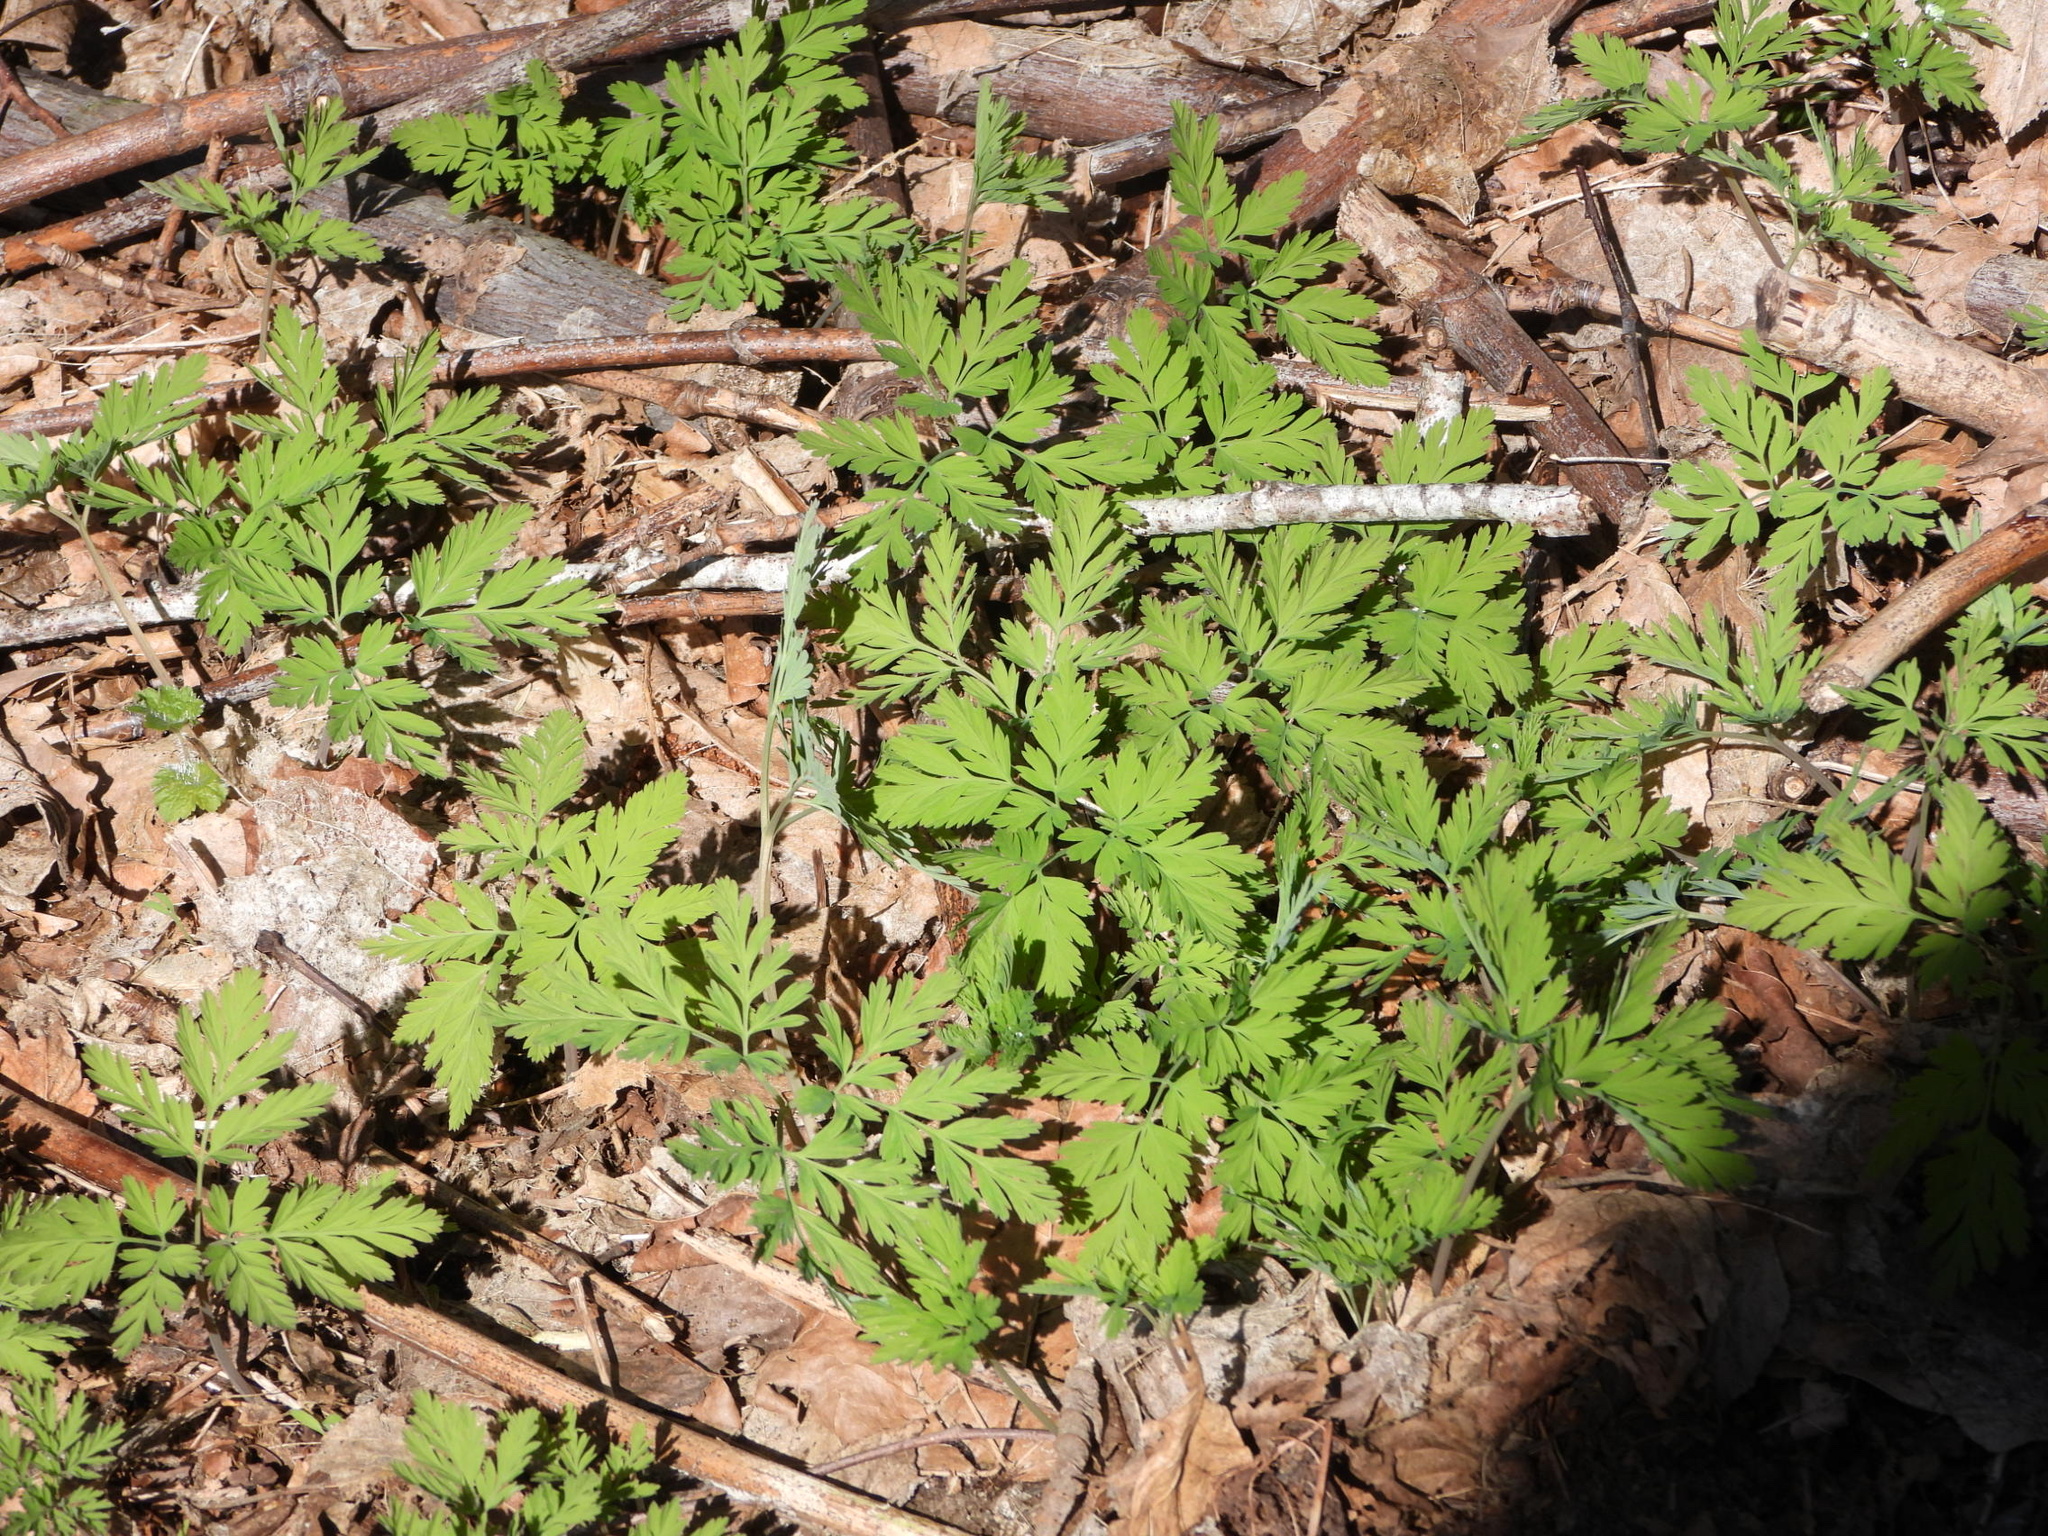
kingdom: Plantae
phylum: Tracheophyta
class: Magnoliopsida
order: Ranunculales
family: Papaveraceae
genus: Dicentra
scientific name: Dicentra formosa
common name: Bleeding-heart
